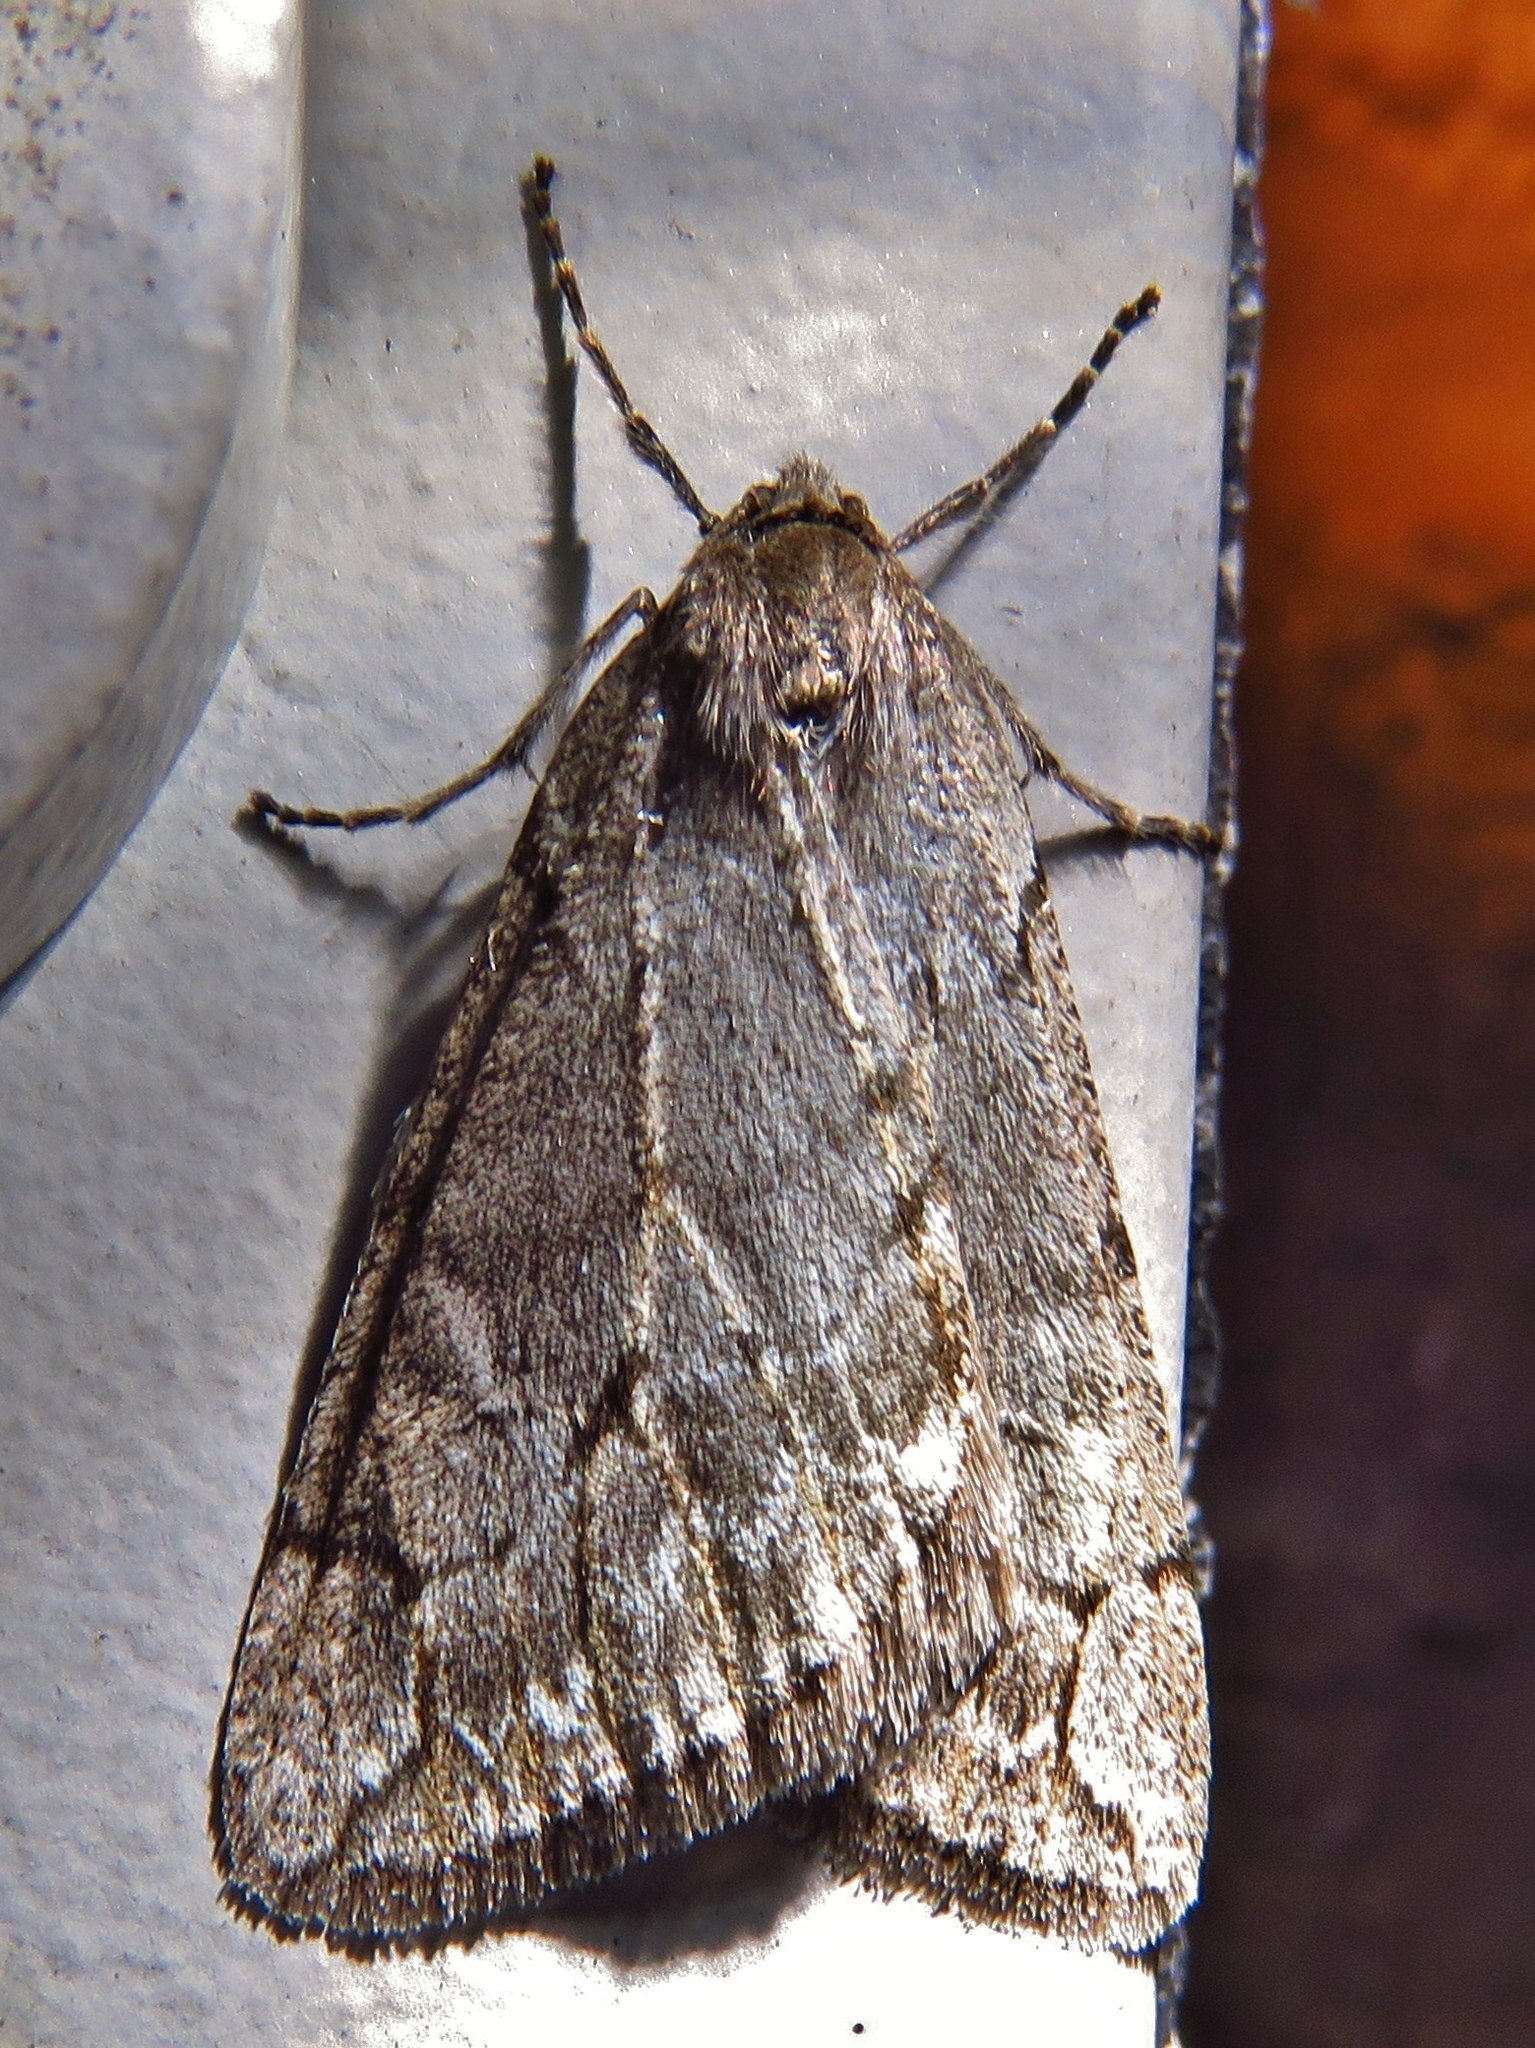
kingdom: Animalia
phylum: Arthropoda
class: Insecta
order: Lepidoptera
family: Geometridae
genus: Paleacrita
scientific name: Paleacrita vernata
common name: Spring cankerworm
